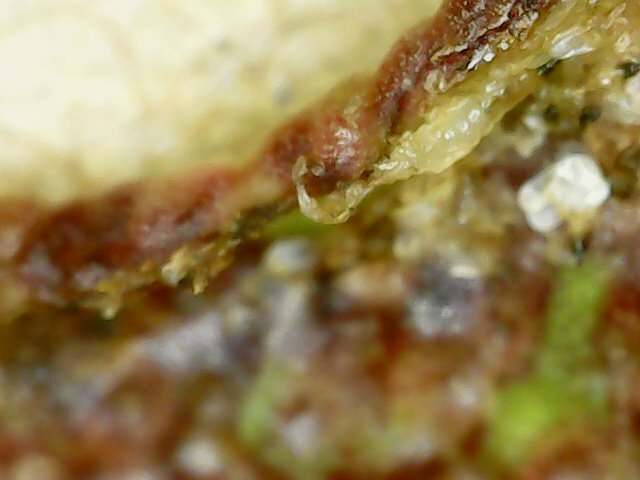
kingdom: Animalia
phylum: Arthropoda
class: Insecta
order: Thysanoptera
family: Phlaeothripidae
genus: Gynaikothrips
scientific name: Gynaikothrips uzeli
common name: Leaf-gall thrips
